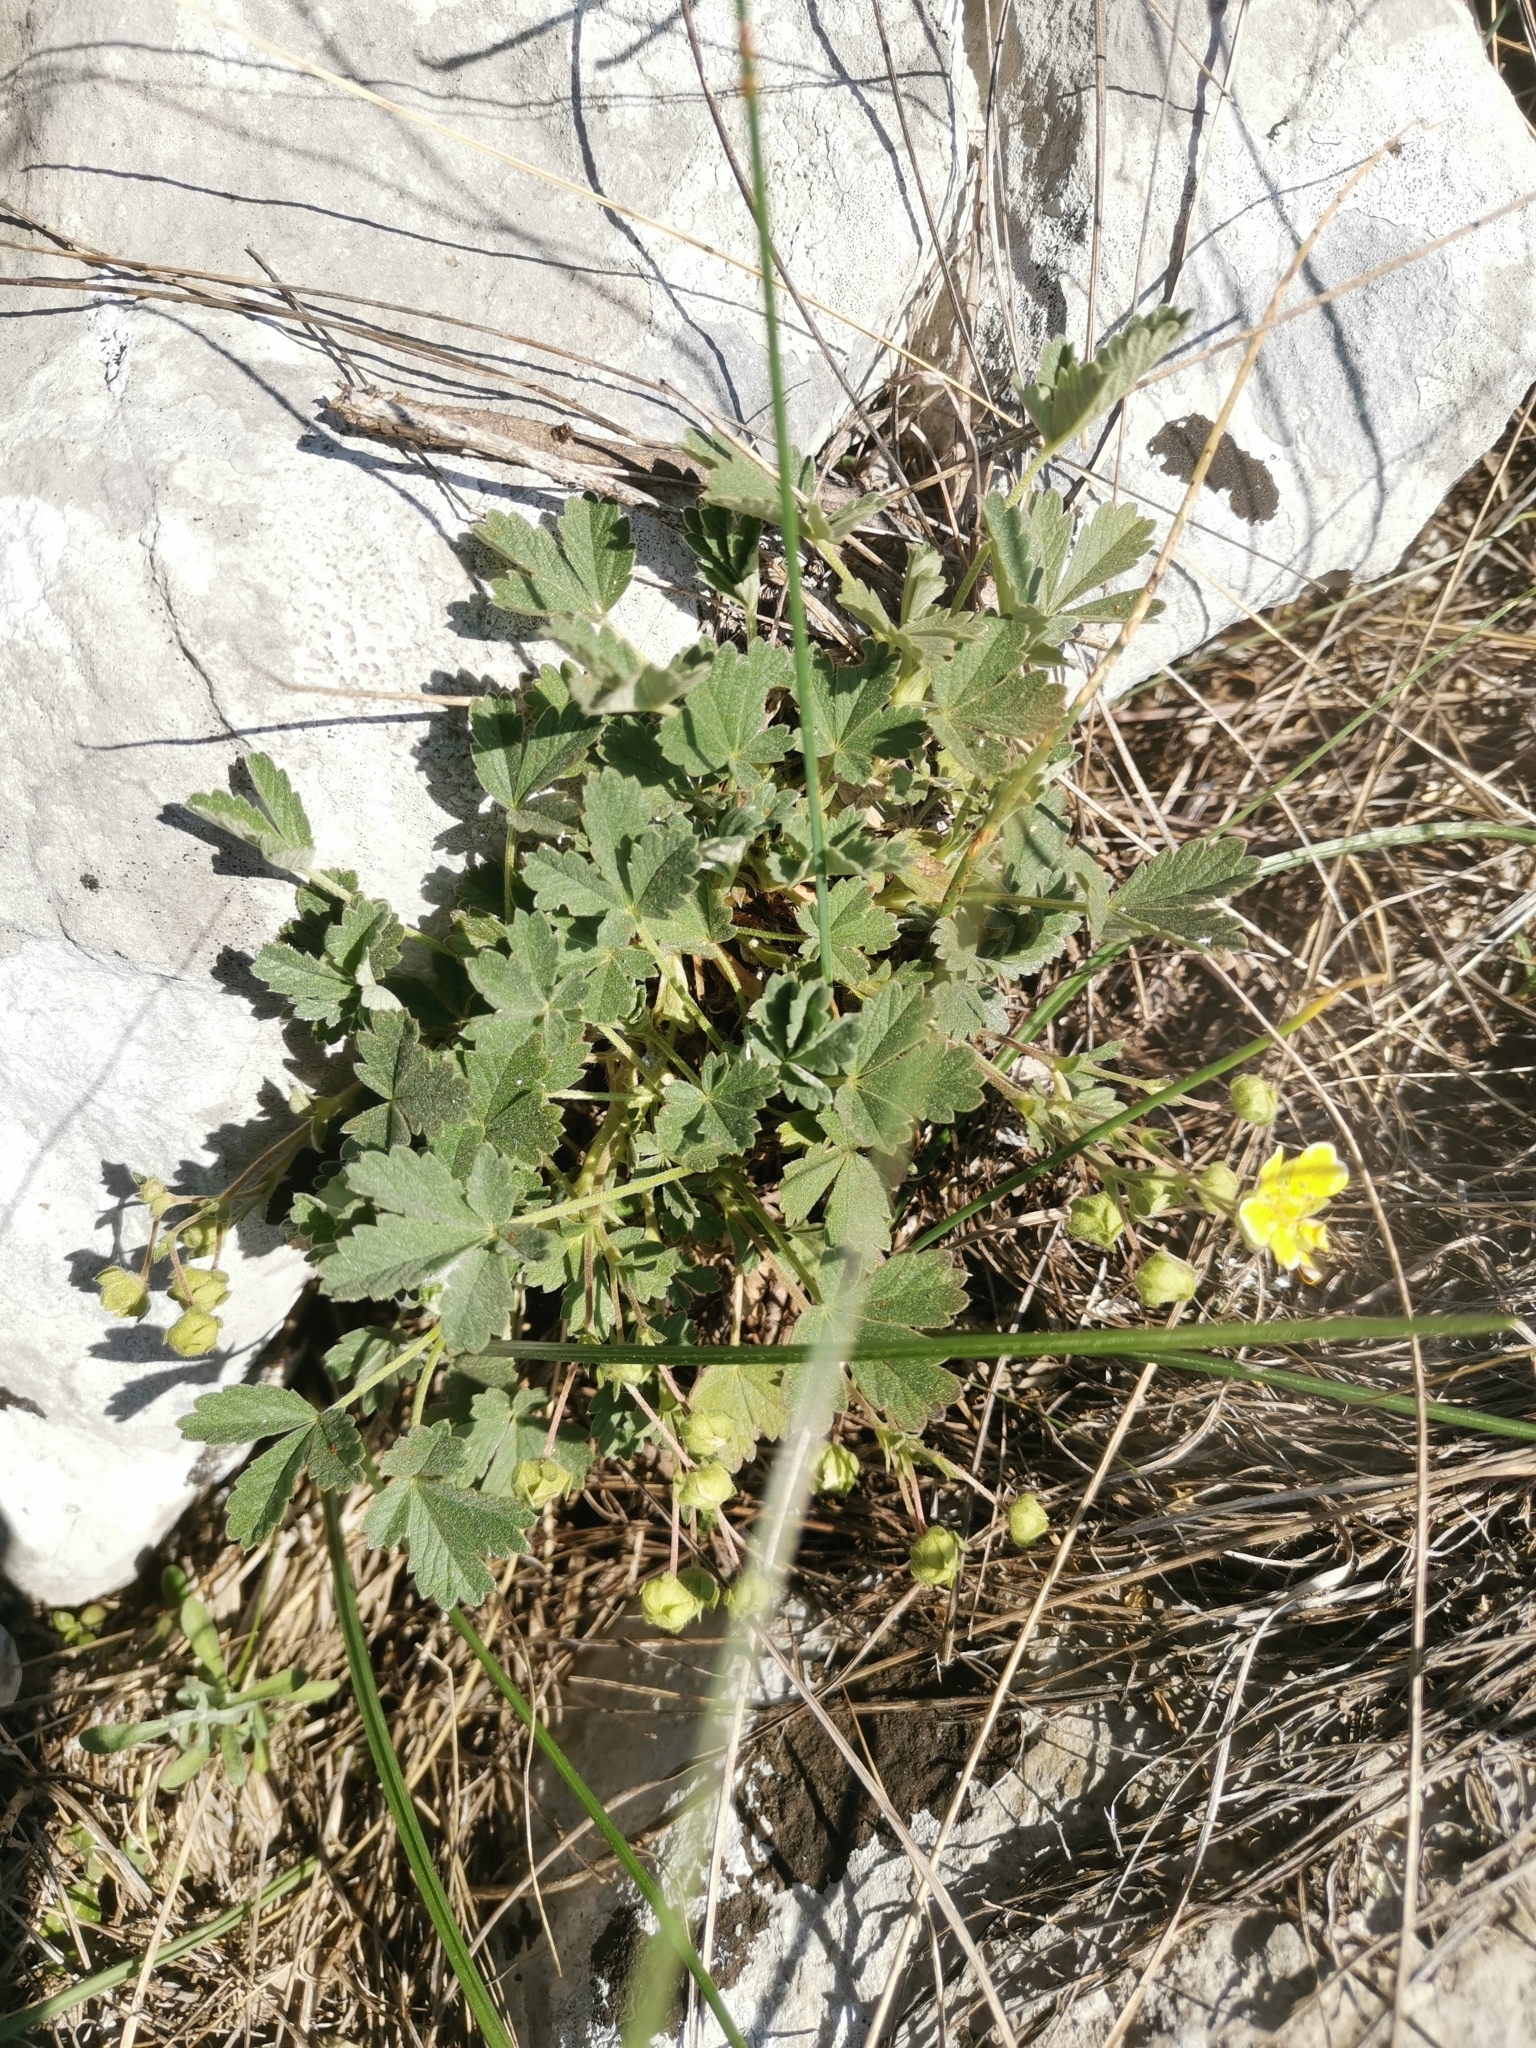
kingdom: Plantae
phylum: Tracheophyta
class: Magnoliopsida
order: Rosales
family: Rosaceae
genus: Potentilla
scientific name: Potentilla incana
